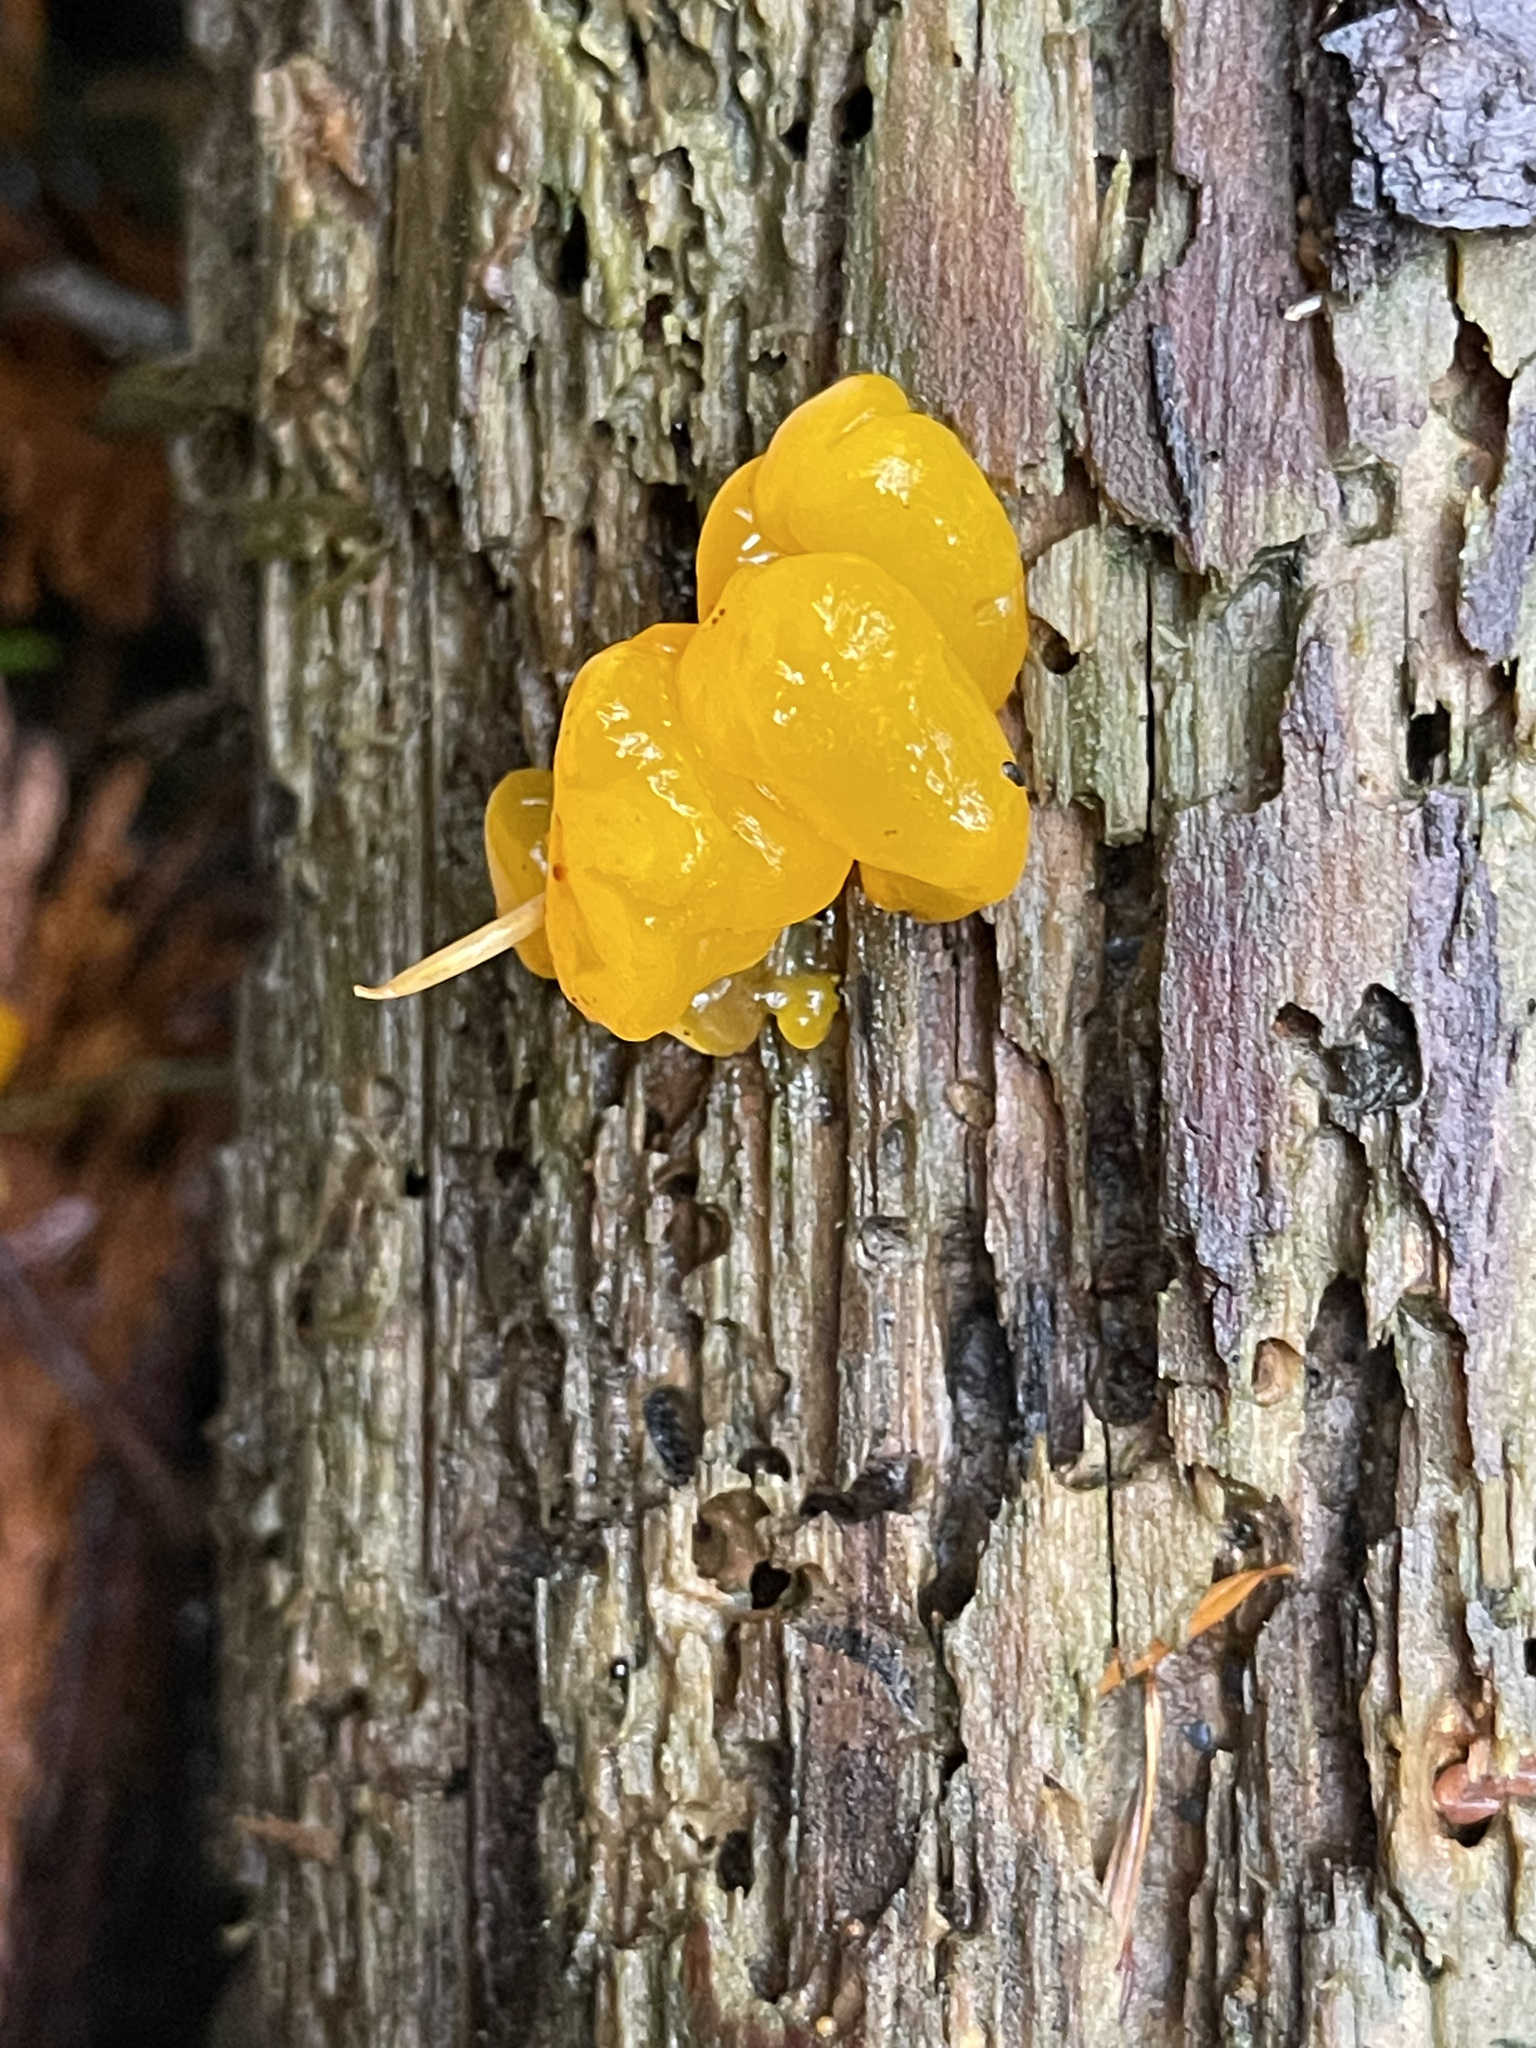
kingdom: Fungi
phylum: Basidiomycota
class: Dacrymycetes
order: Dacrymycetales
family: Dacrymycetaceae
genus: Dacrymyces
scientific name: Dacrymyces chrysospermus
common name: Orange jelly spot
